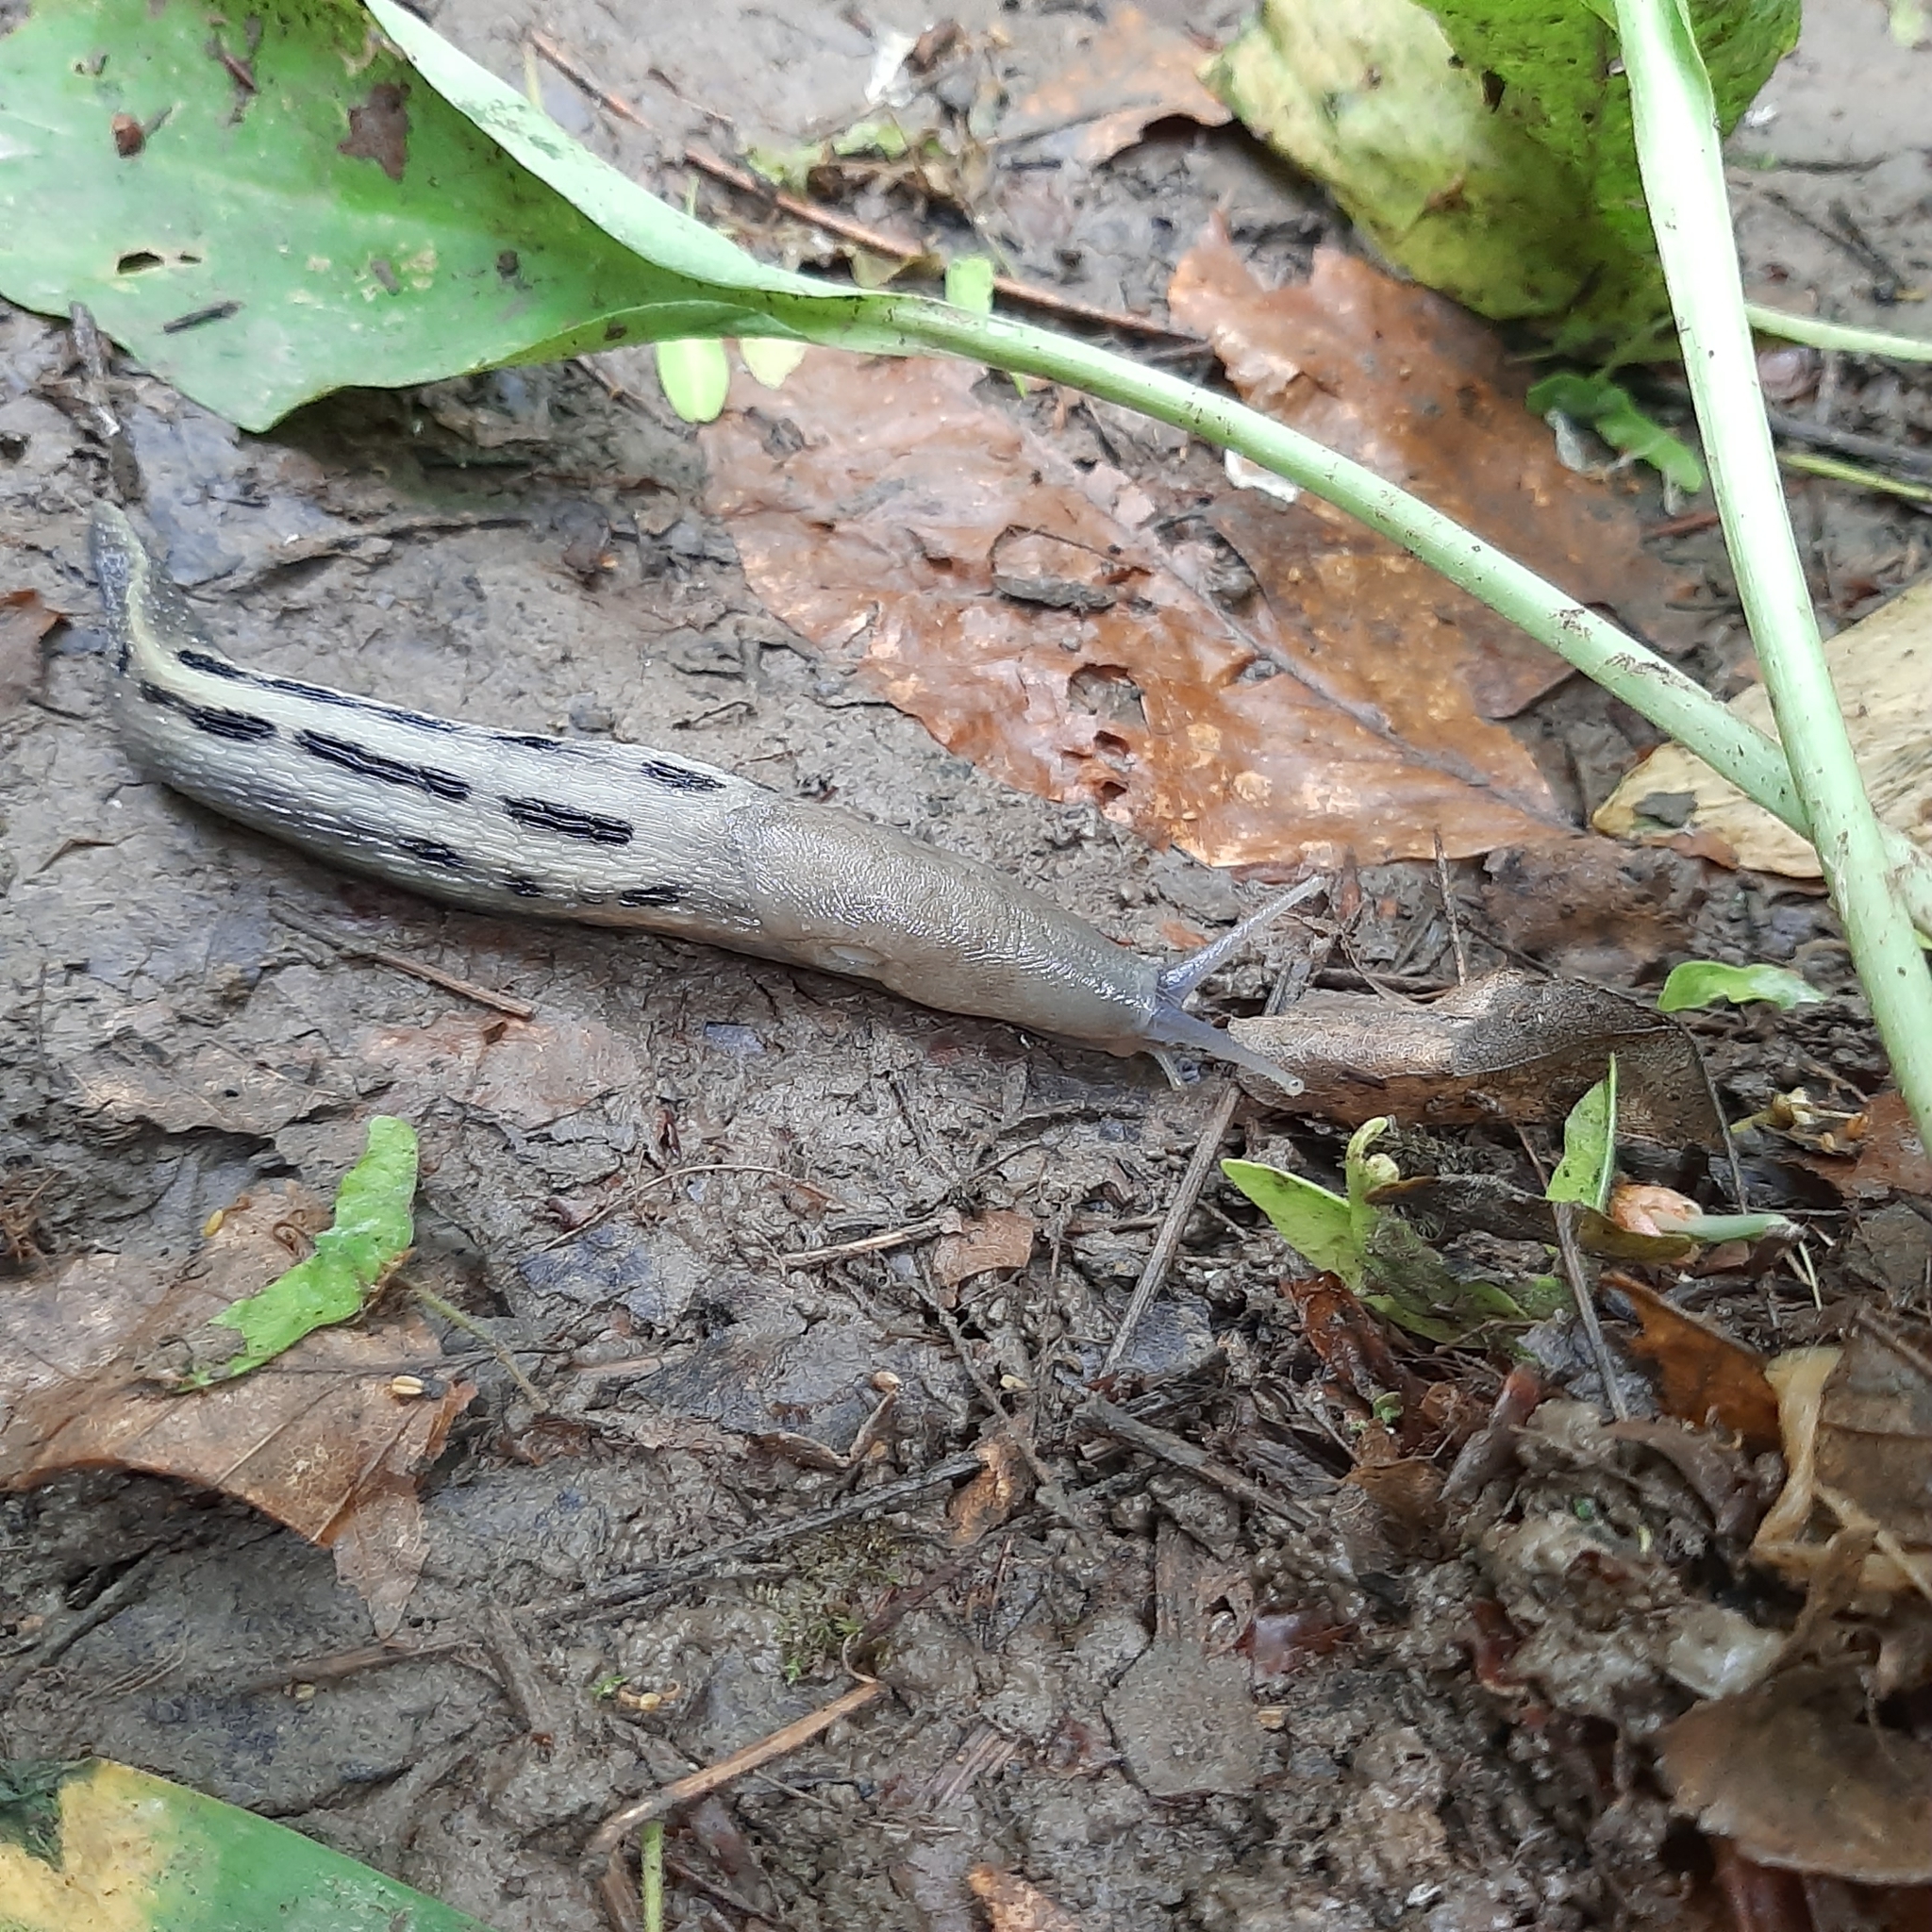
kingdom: Animalia
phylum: Mollusca
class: Gastropoda
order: Stylommatophora
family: Limacidae
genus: Limax
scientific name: Limax cinereoniger
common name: Ash-black slug
